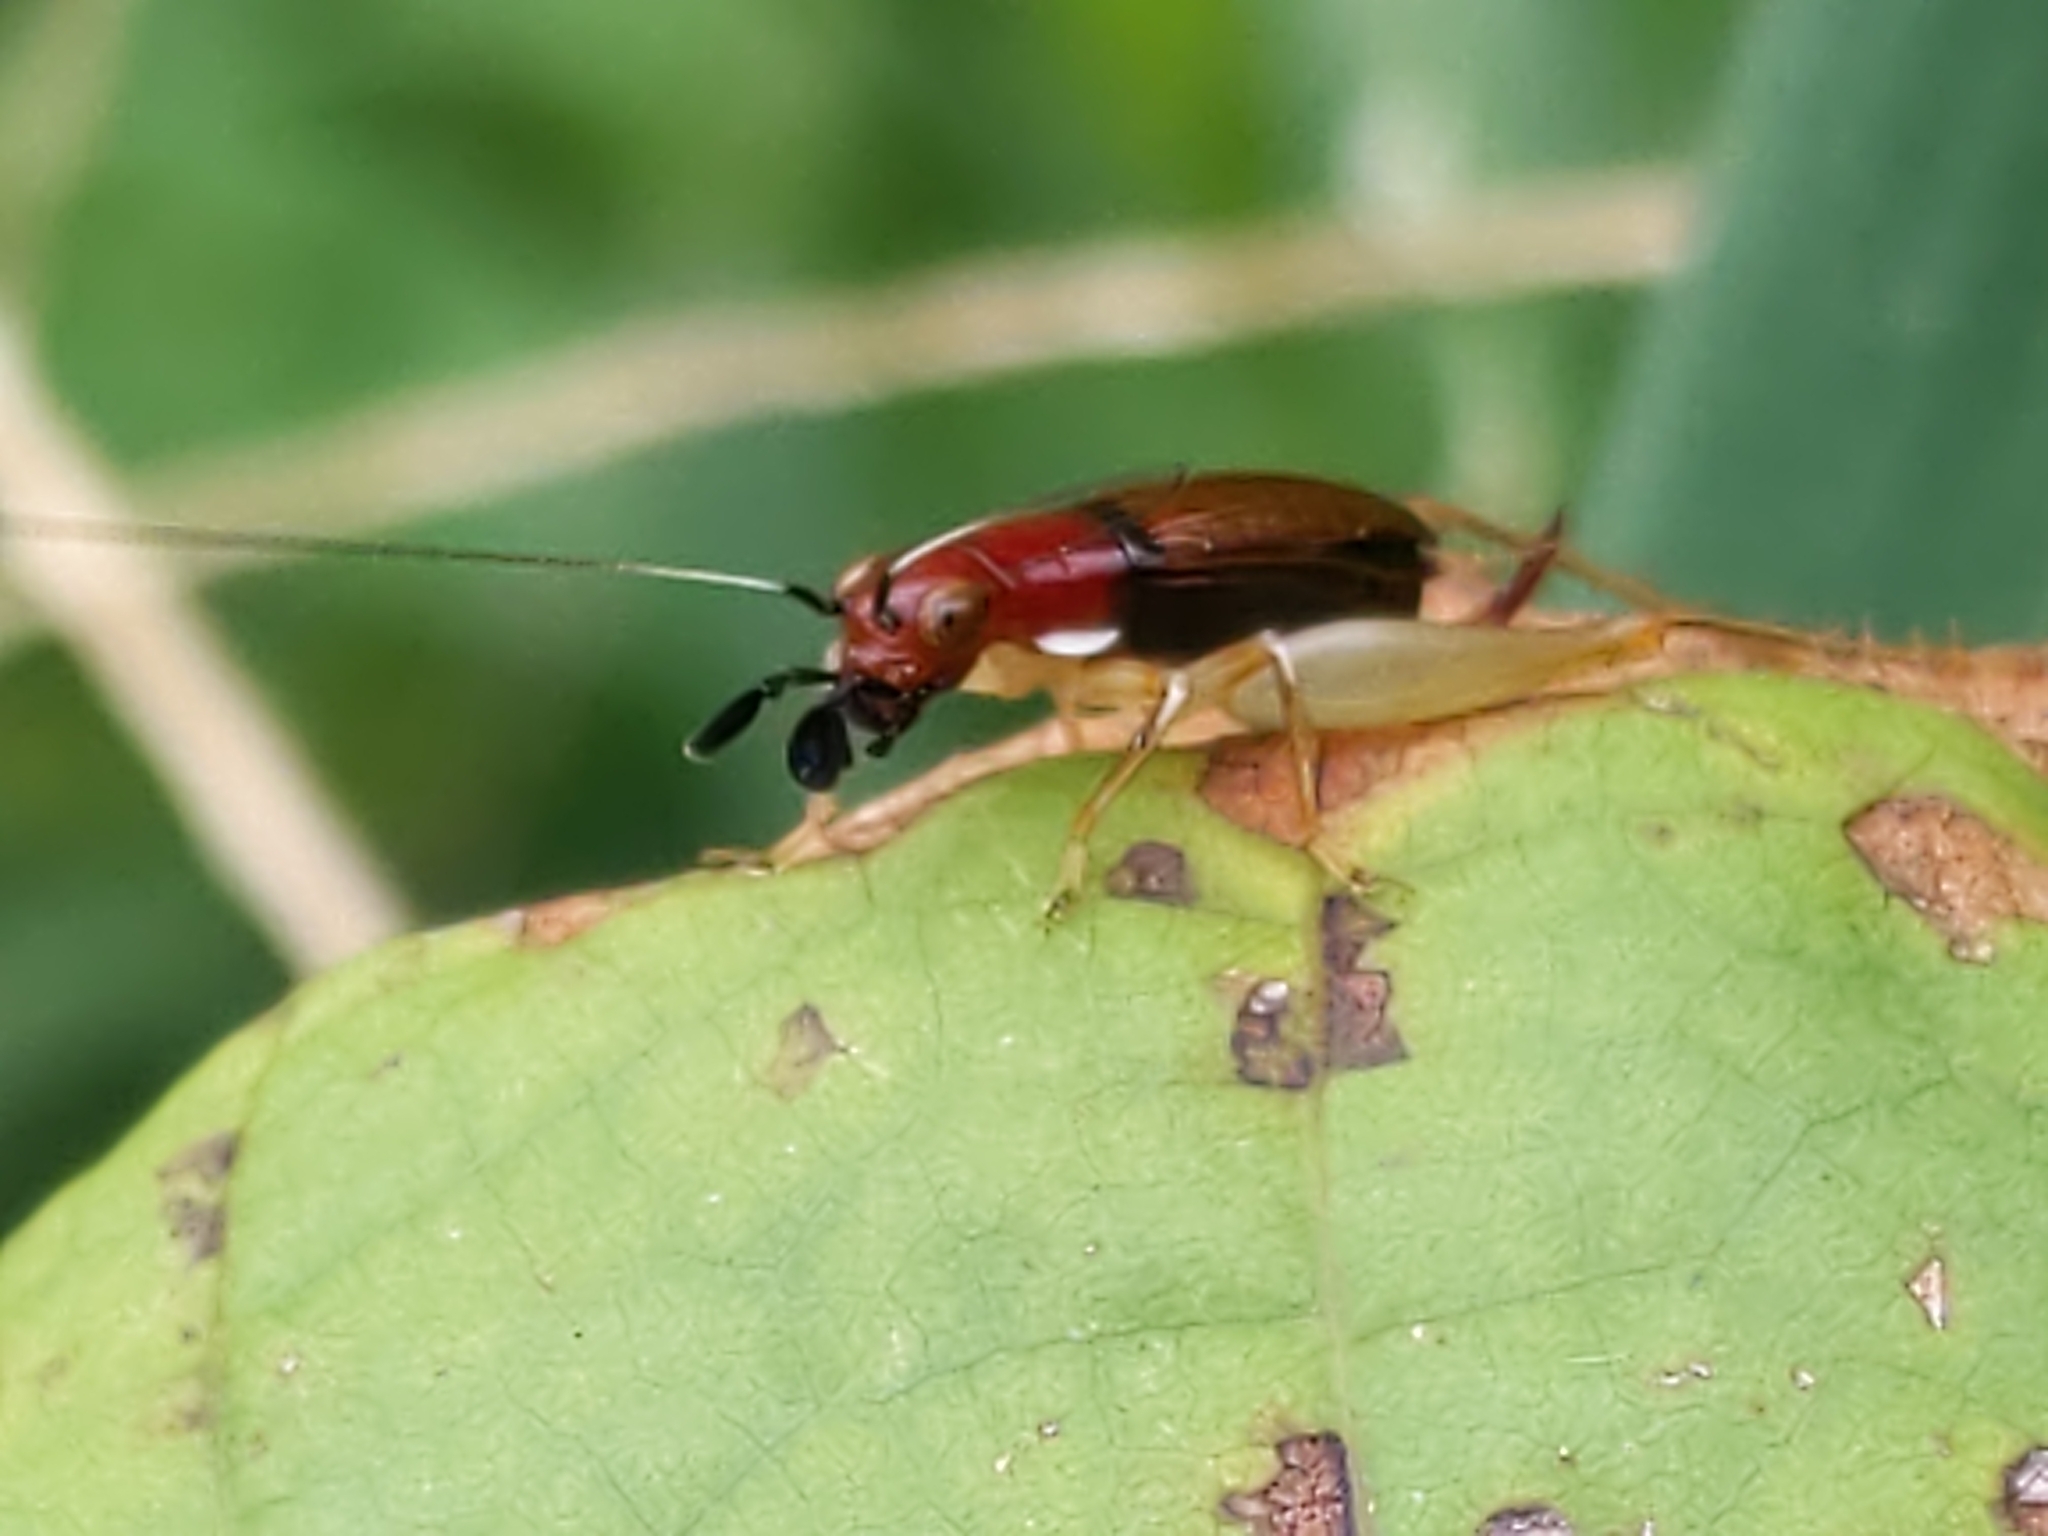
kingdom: Animalia
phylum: Arthropoda
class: Insecta
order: Orthoptera
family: Trigonidiidae
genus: Phyllopalpus
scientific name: Phyllopalpus pulchellus
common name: Handsome trig
